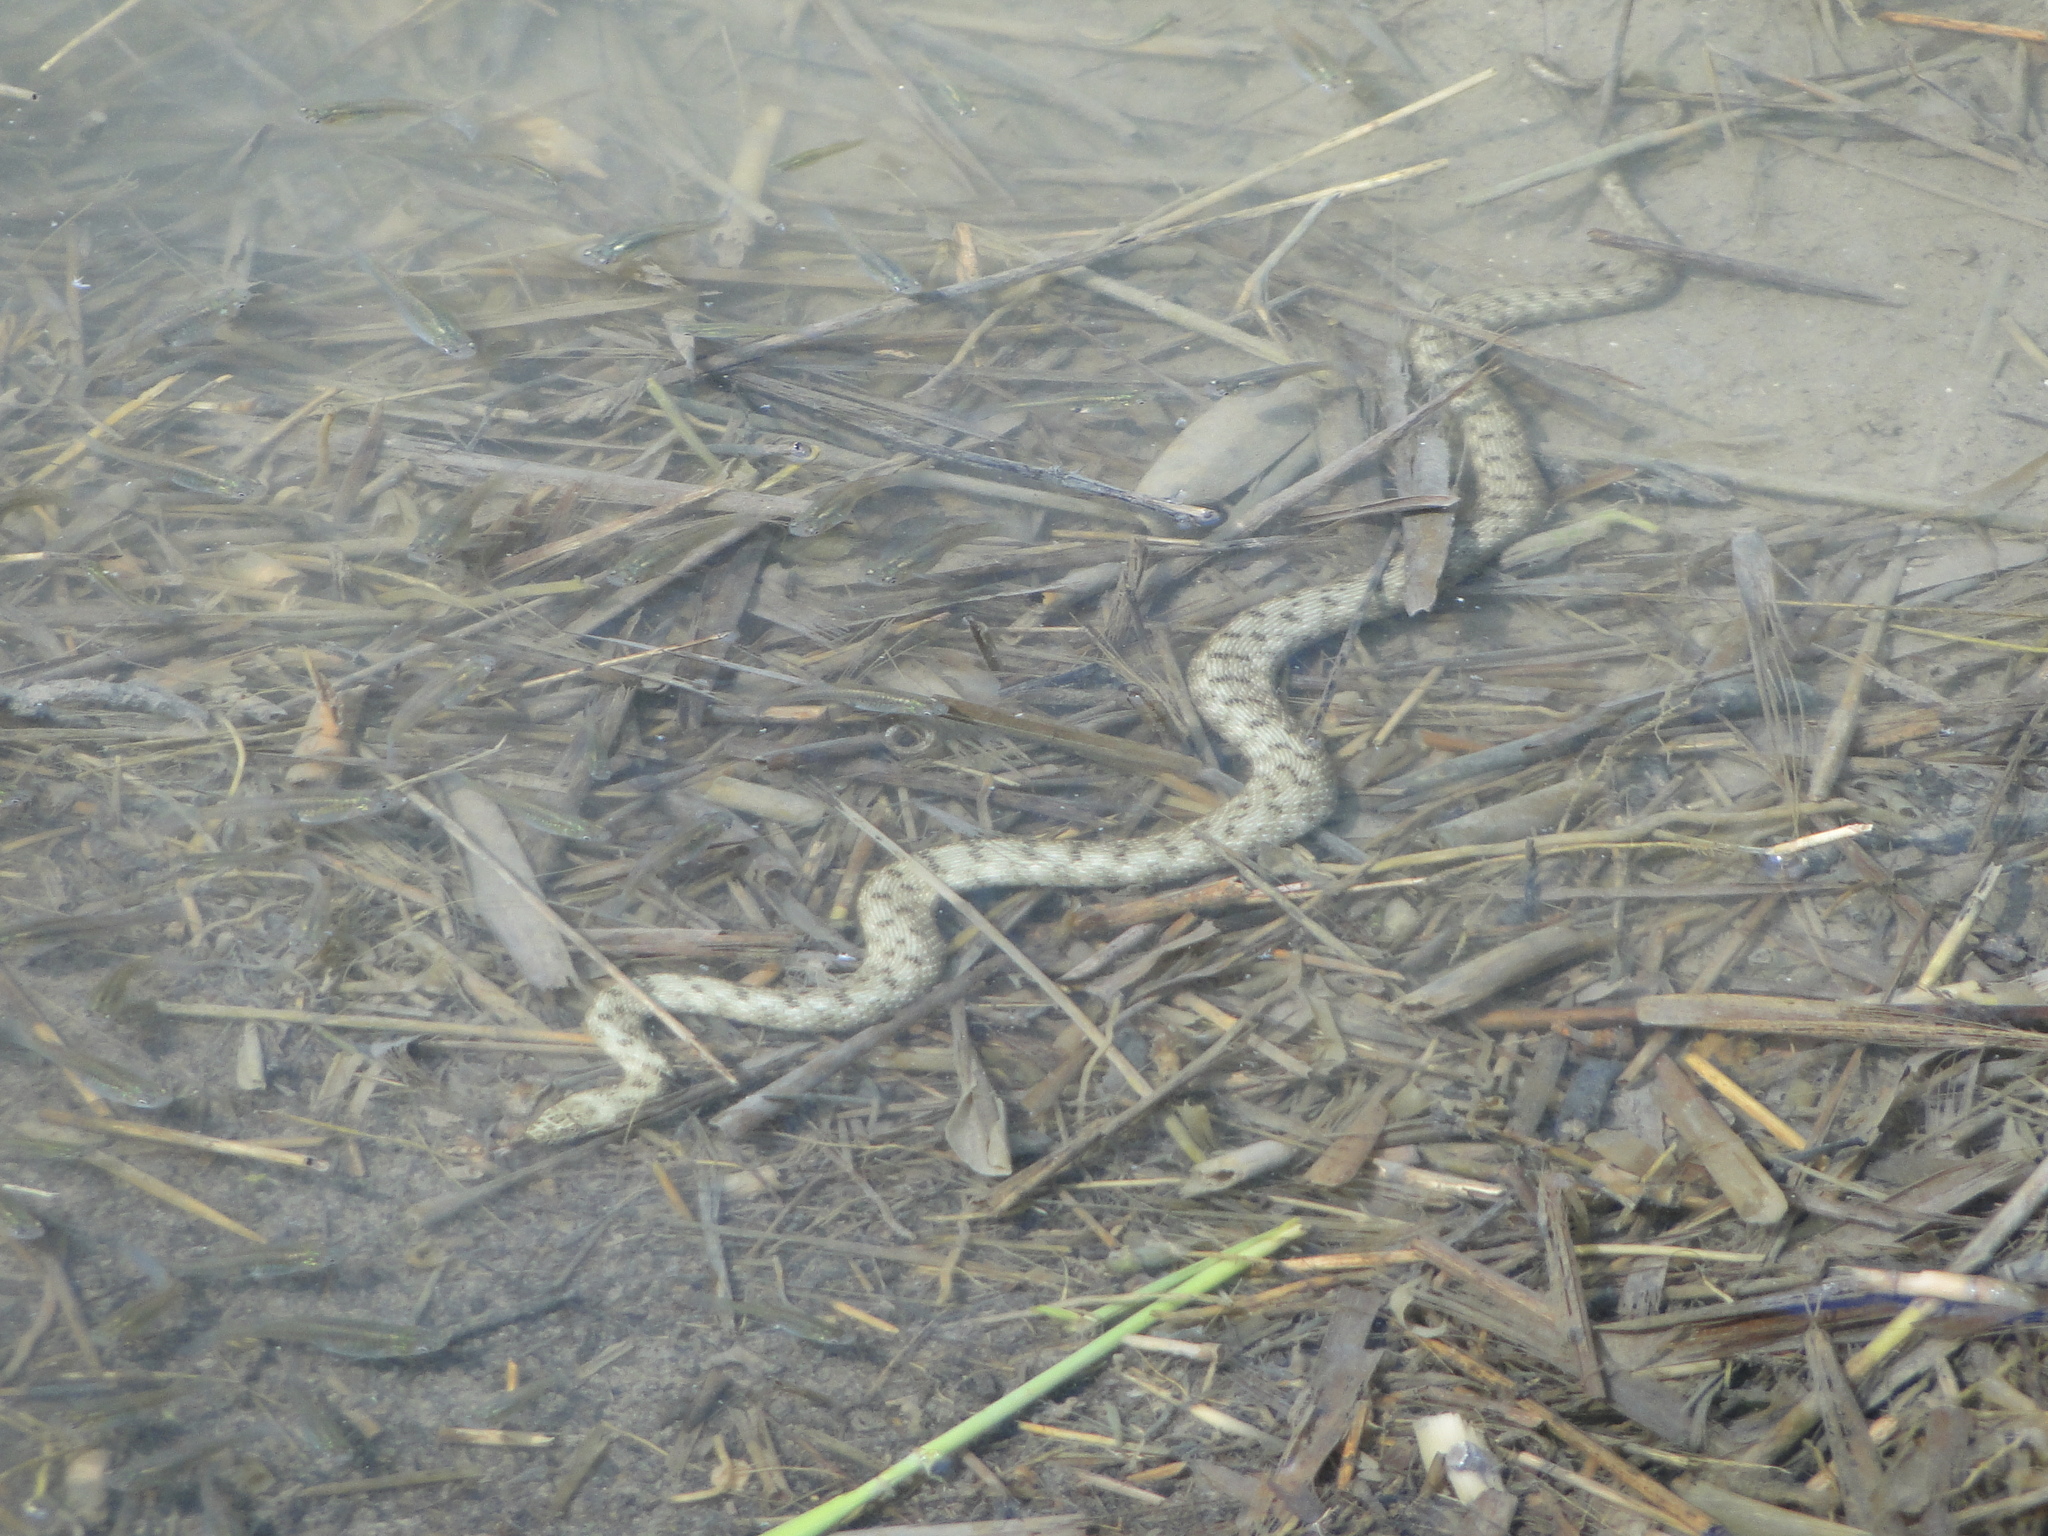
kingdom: Animalia
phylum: Chordata
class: Squamata
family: Colubridae
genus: Natrix
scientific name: Natrix tessellata
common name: Dice snake
